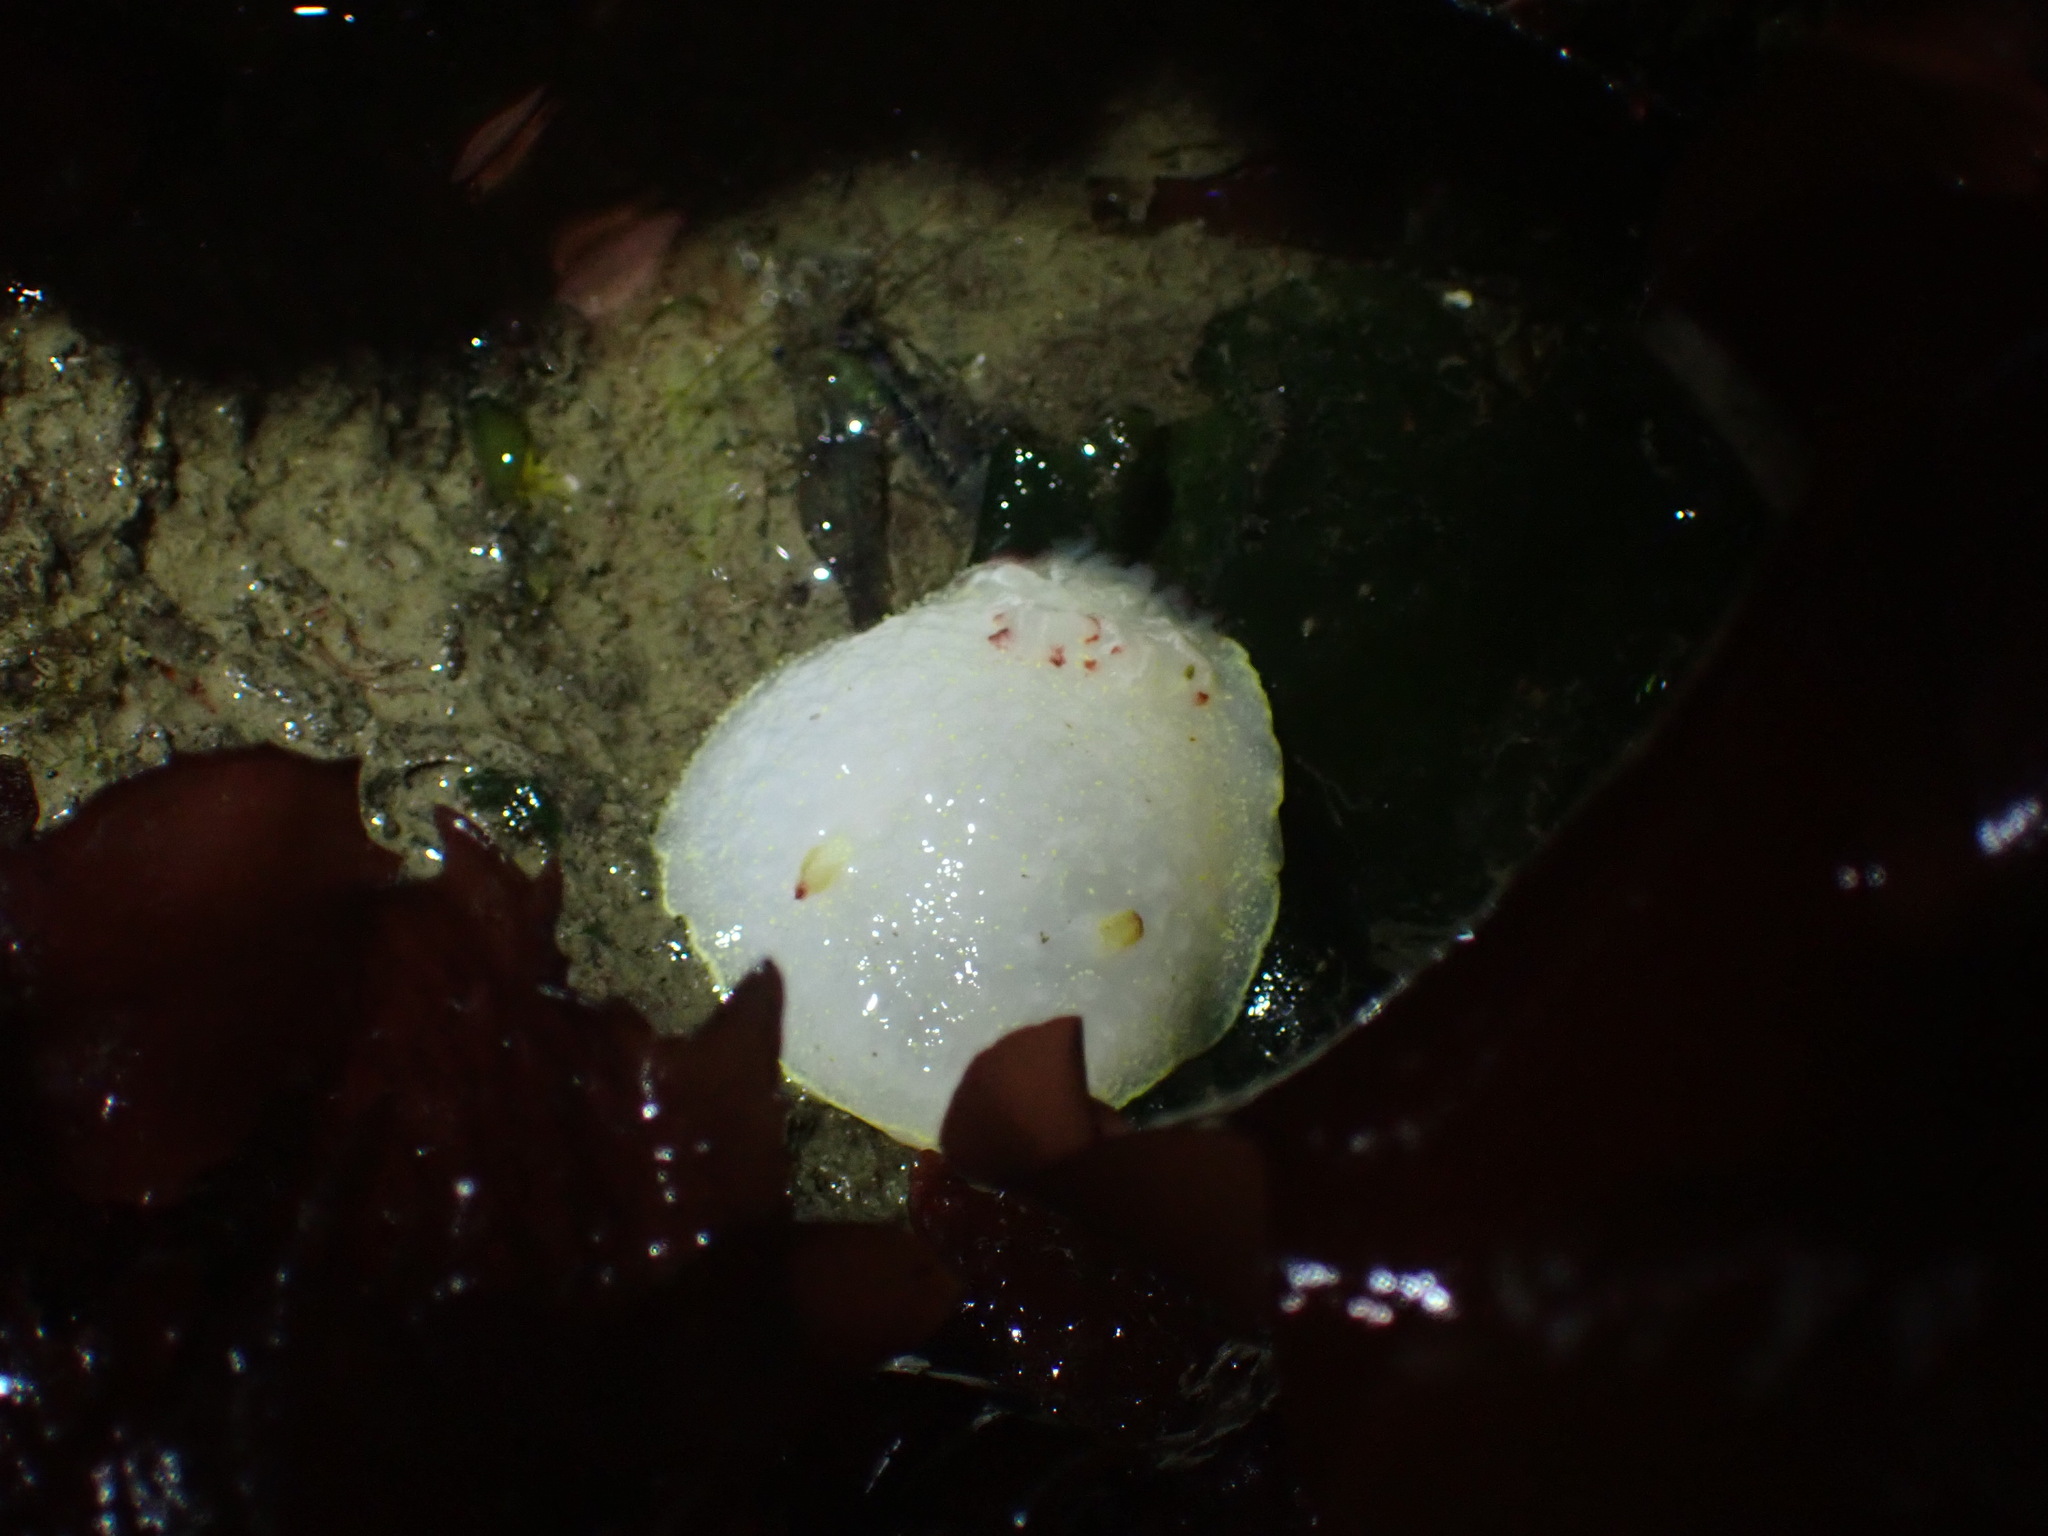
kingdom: Animalia
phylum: Mollusca
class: Gastropoda
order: Nudibranchia
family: Onchidorididae
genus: Acanthodoris
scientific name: Acanthodoris nanaimoensis
